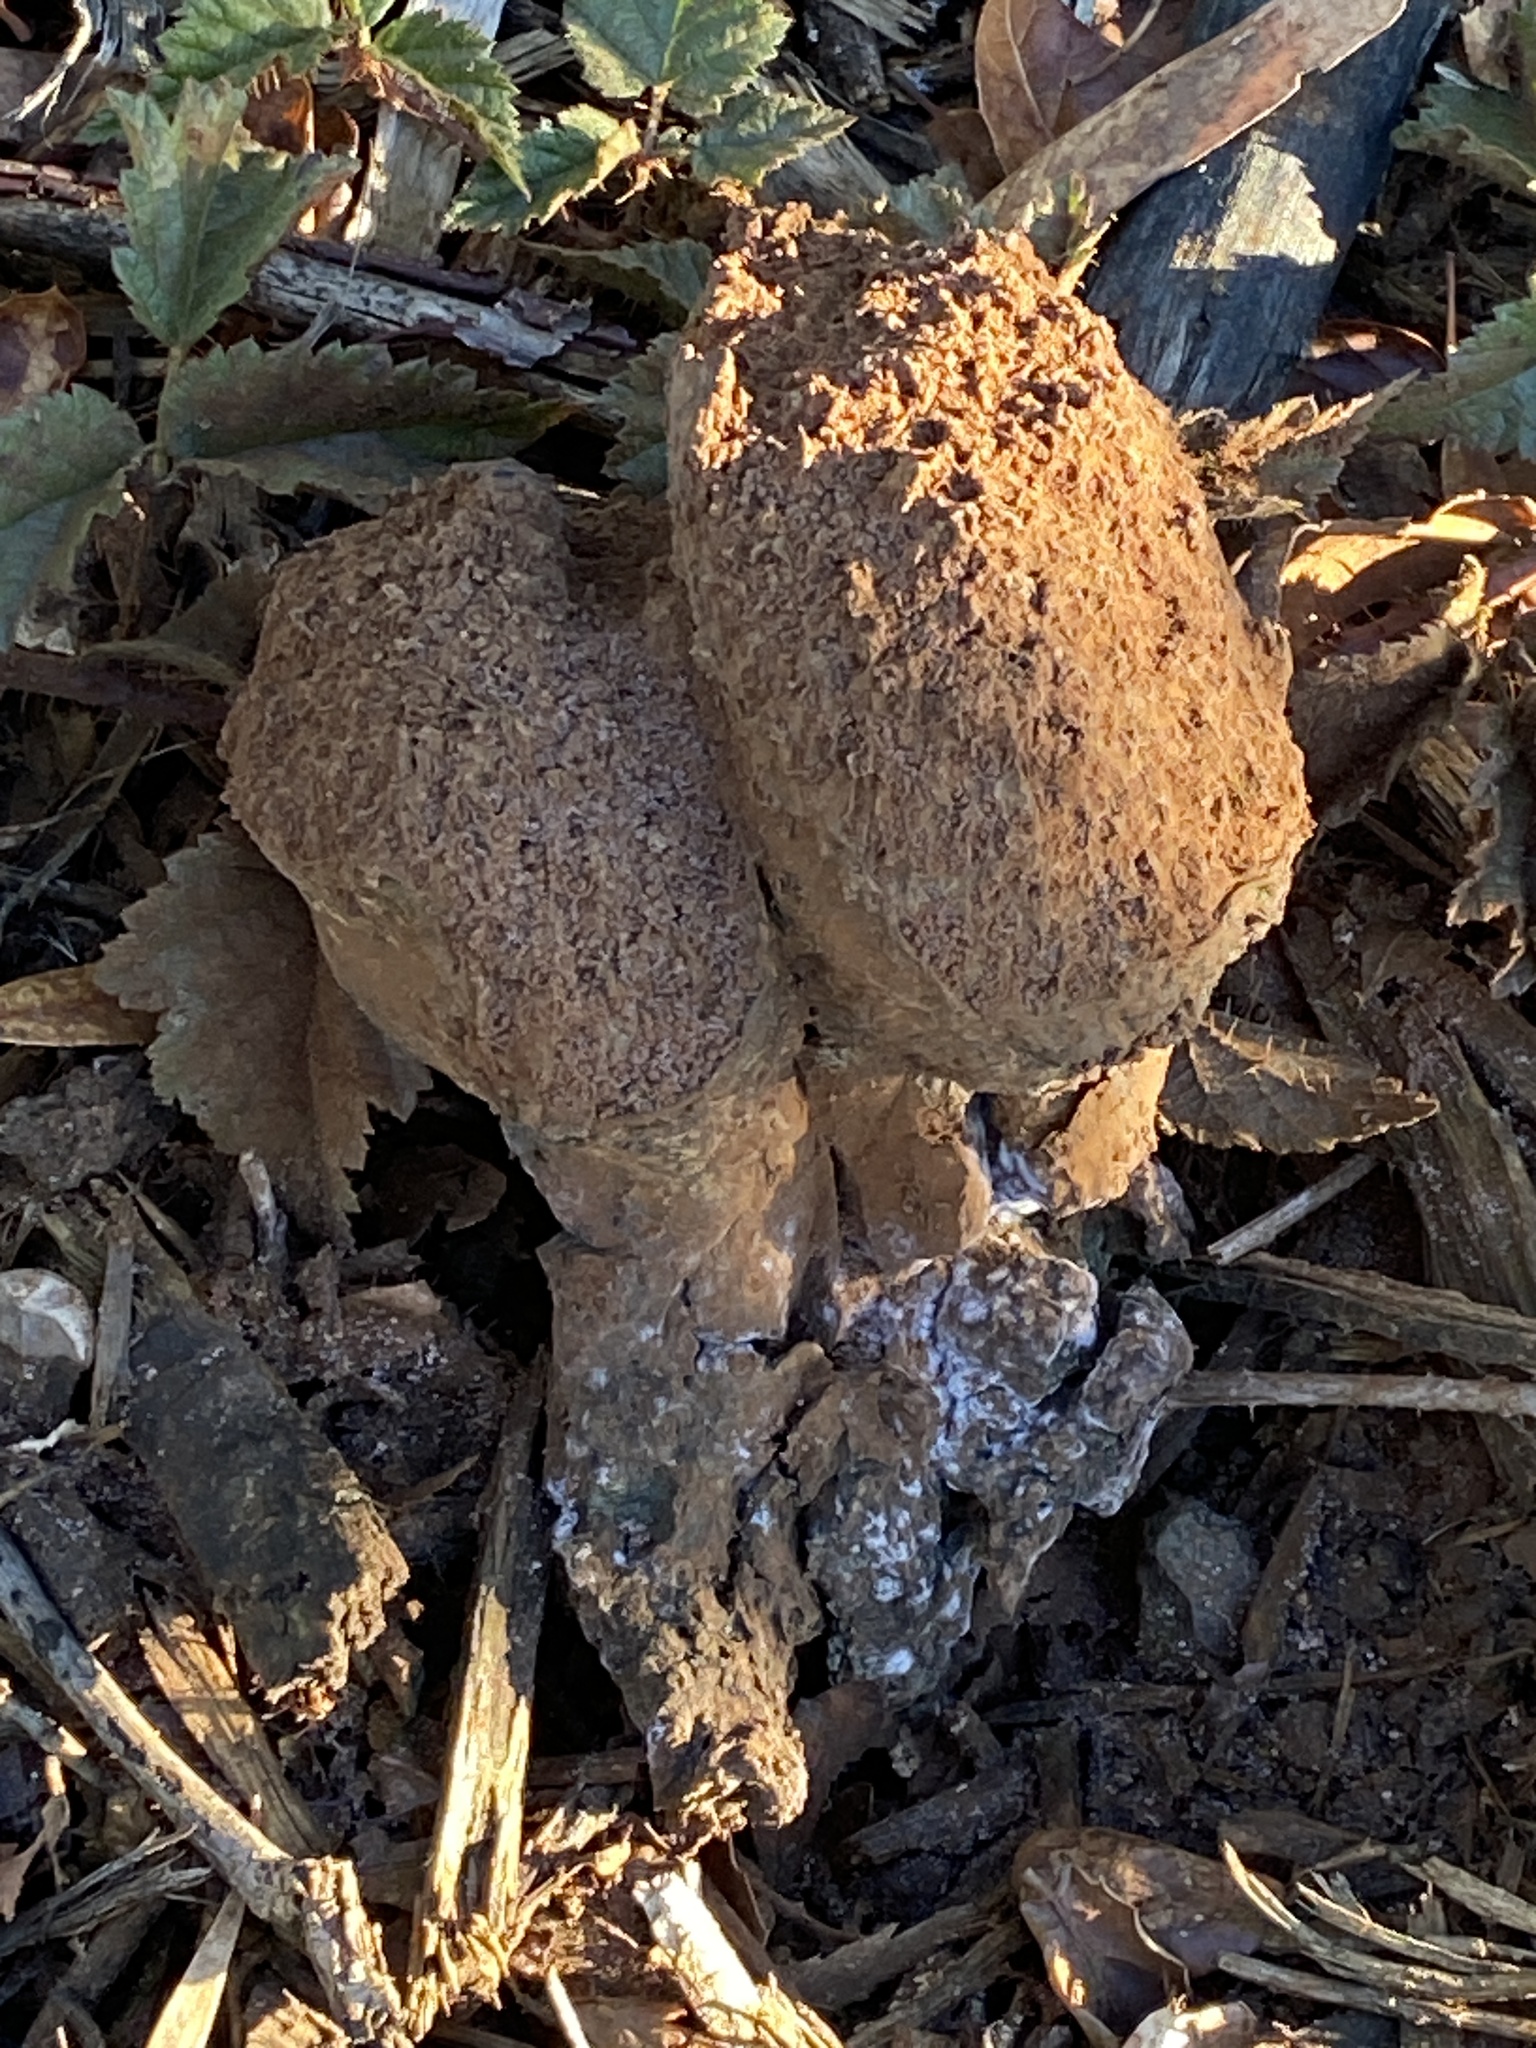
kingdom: Fungi
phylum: Basidiomycota
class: Agaricomycetes
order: Boletales
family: Sclerodermataceae
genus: Pisolithus
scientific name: Pisolithus tinctorius
